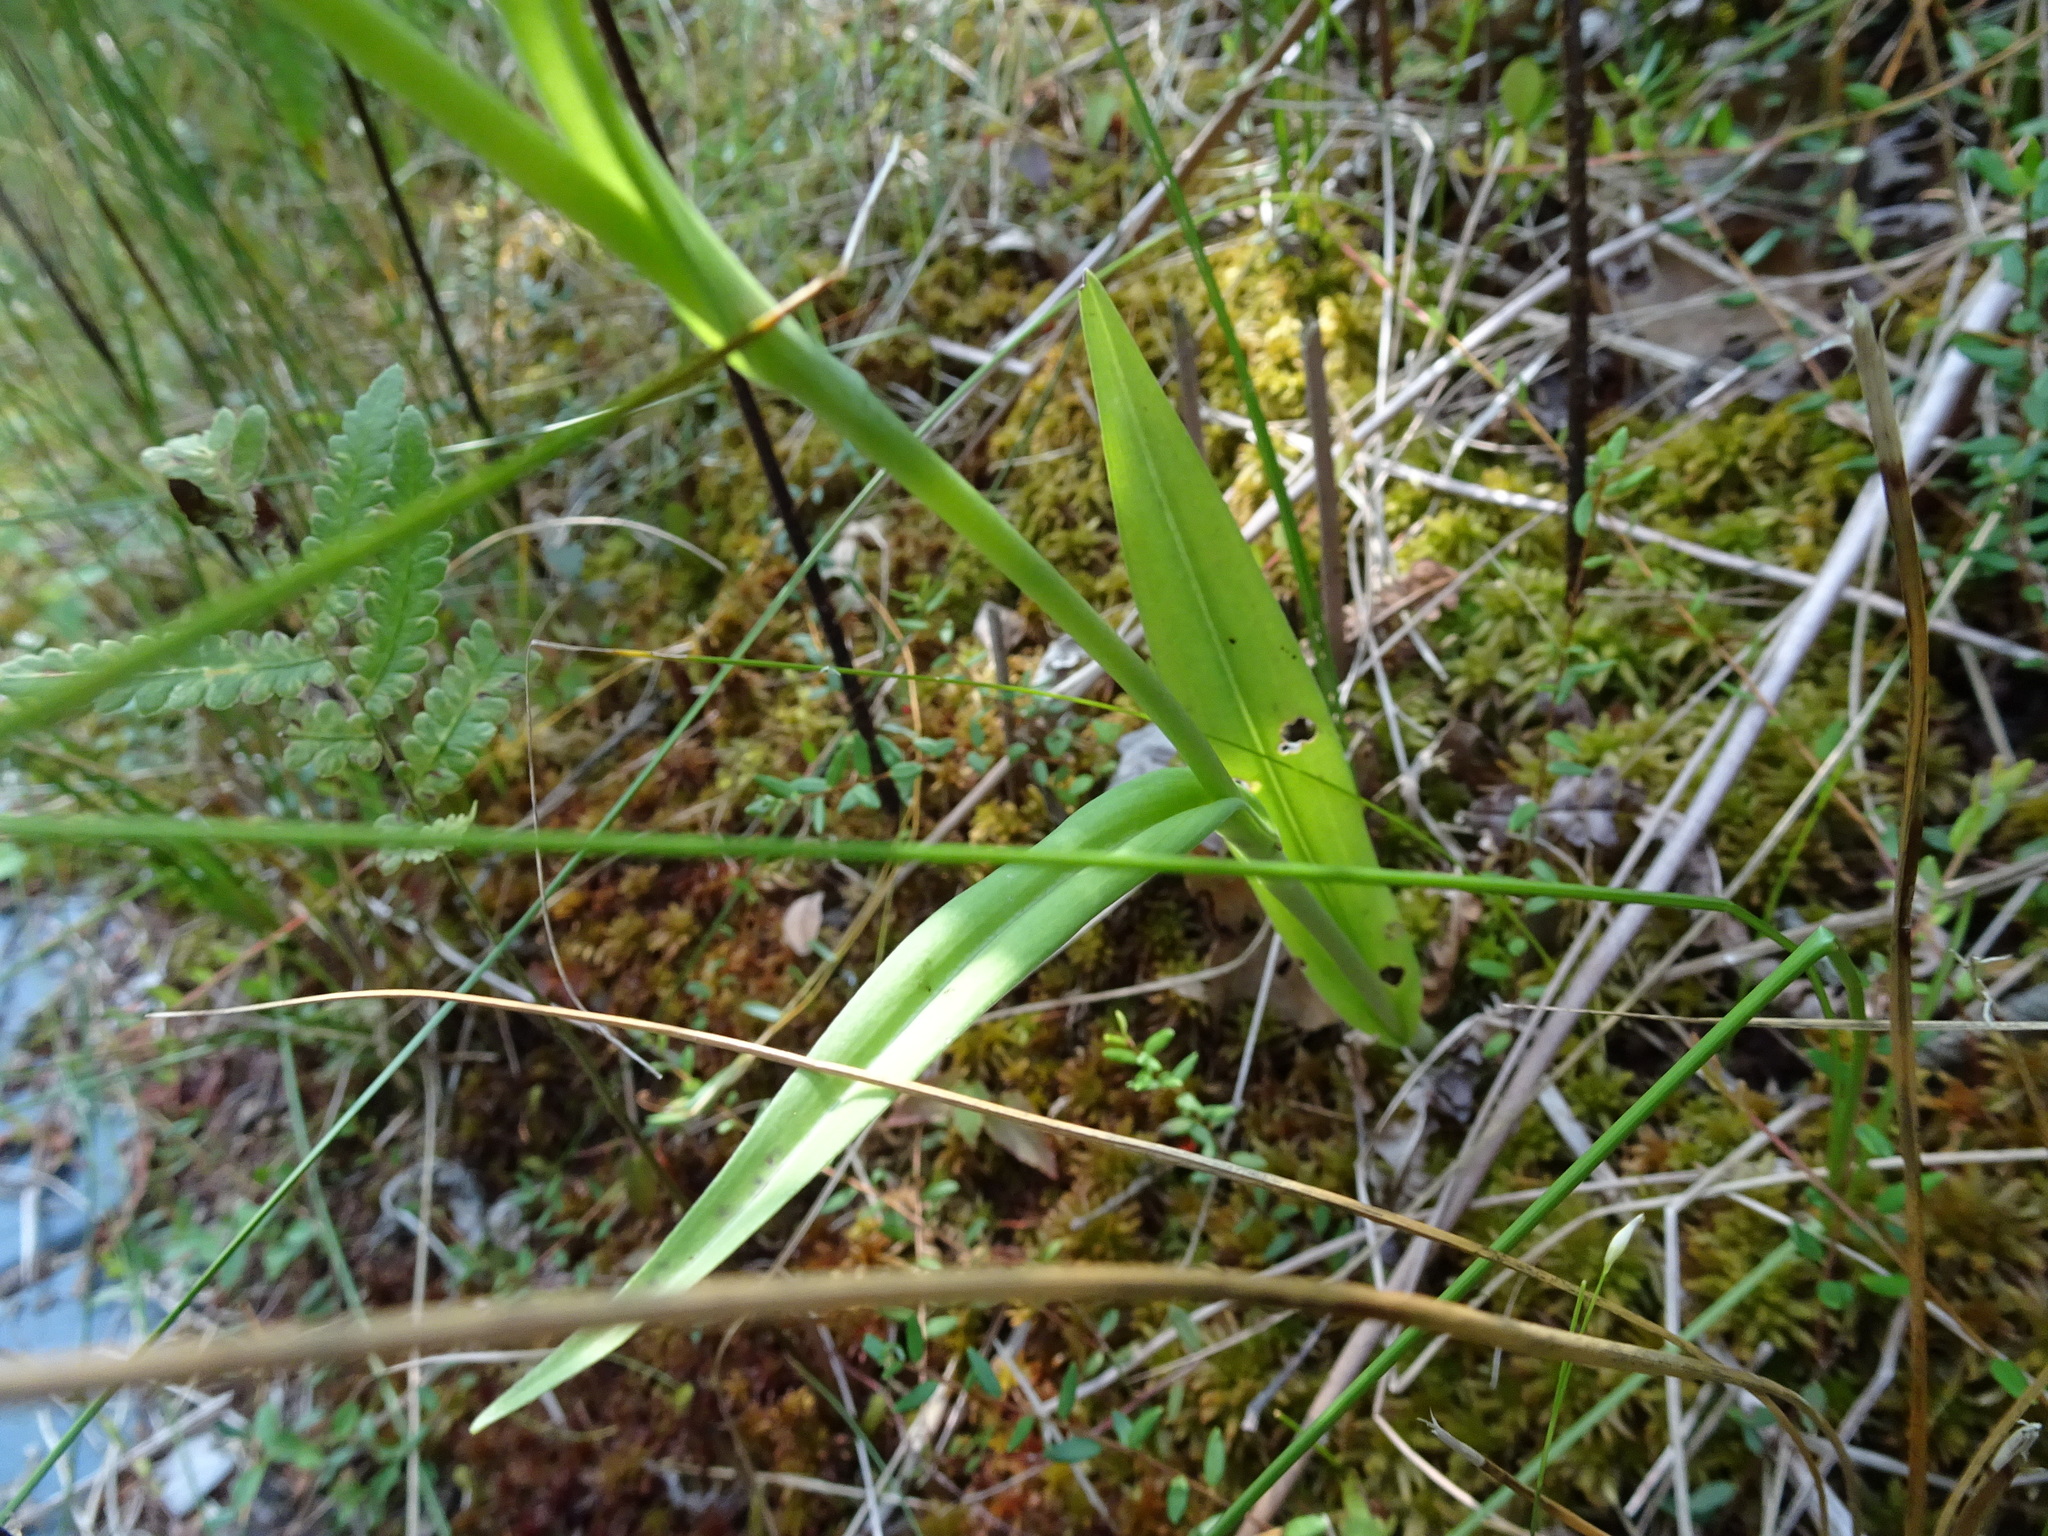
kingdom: Plantae
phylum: Tracheophyta
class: Liliopsida
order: Asparagales
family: Orchidaceae
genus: Platanthera
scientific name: Platanthera ciliaris
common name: Yellow fringed orchid
